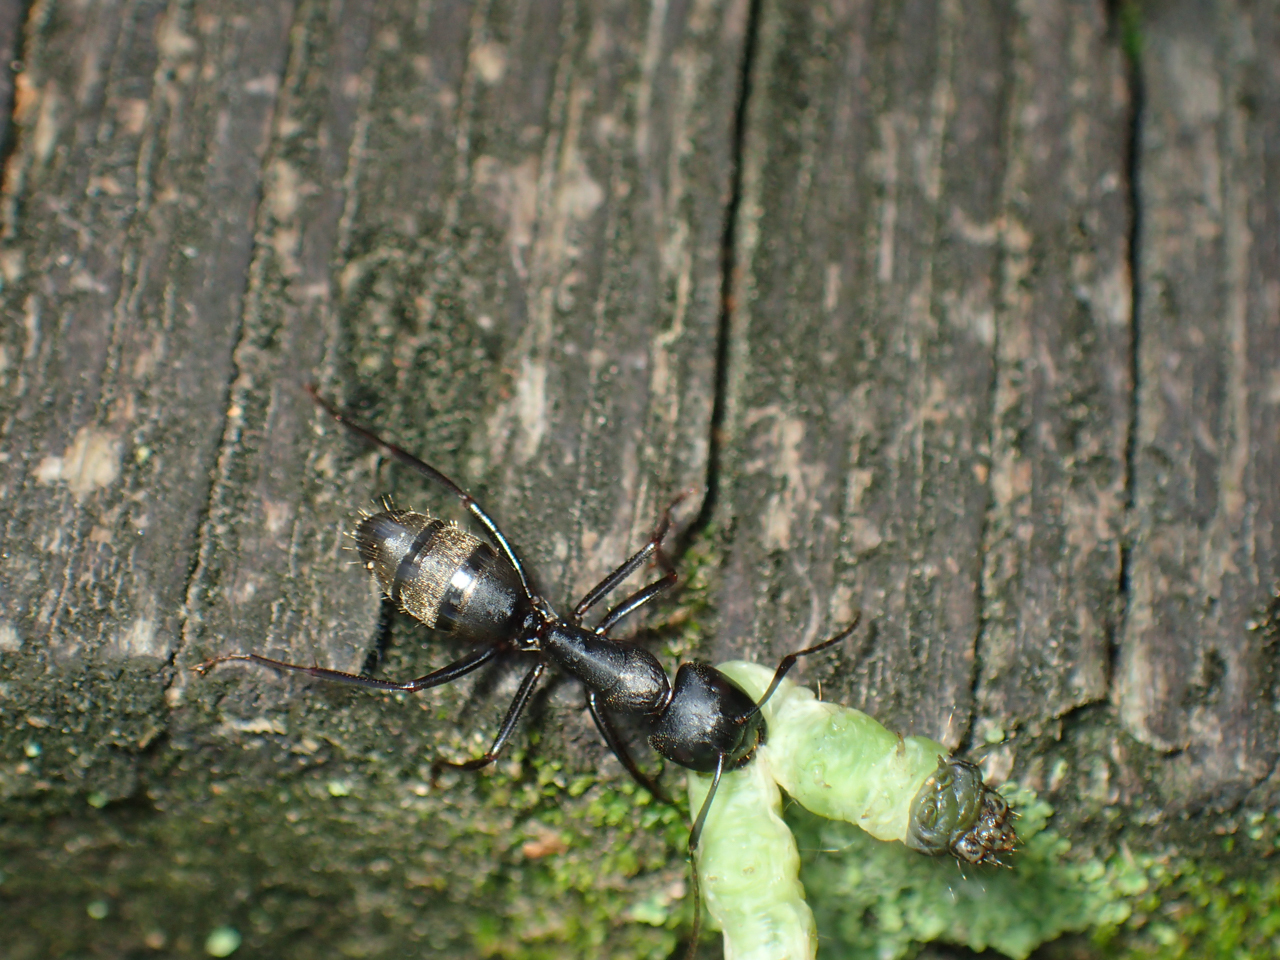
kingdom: Animalia
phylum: Arthropoda
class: Insecta
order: Hymenoptera
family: Formicidae
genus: Camponotus
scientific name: Camponotus pennsylvanicus
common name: Black carpenter ant
